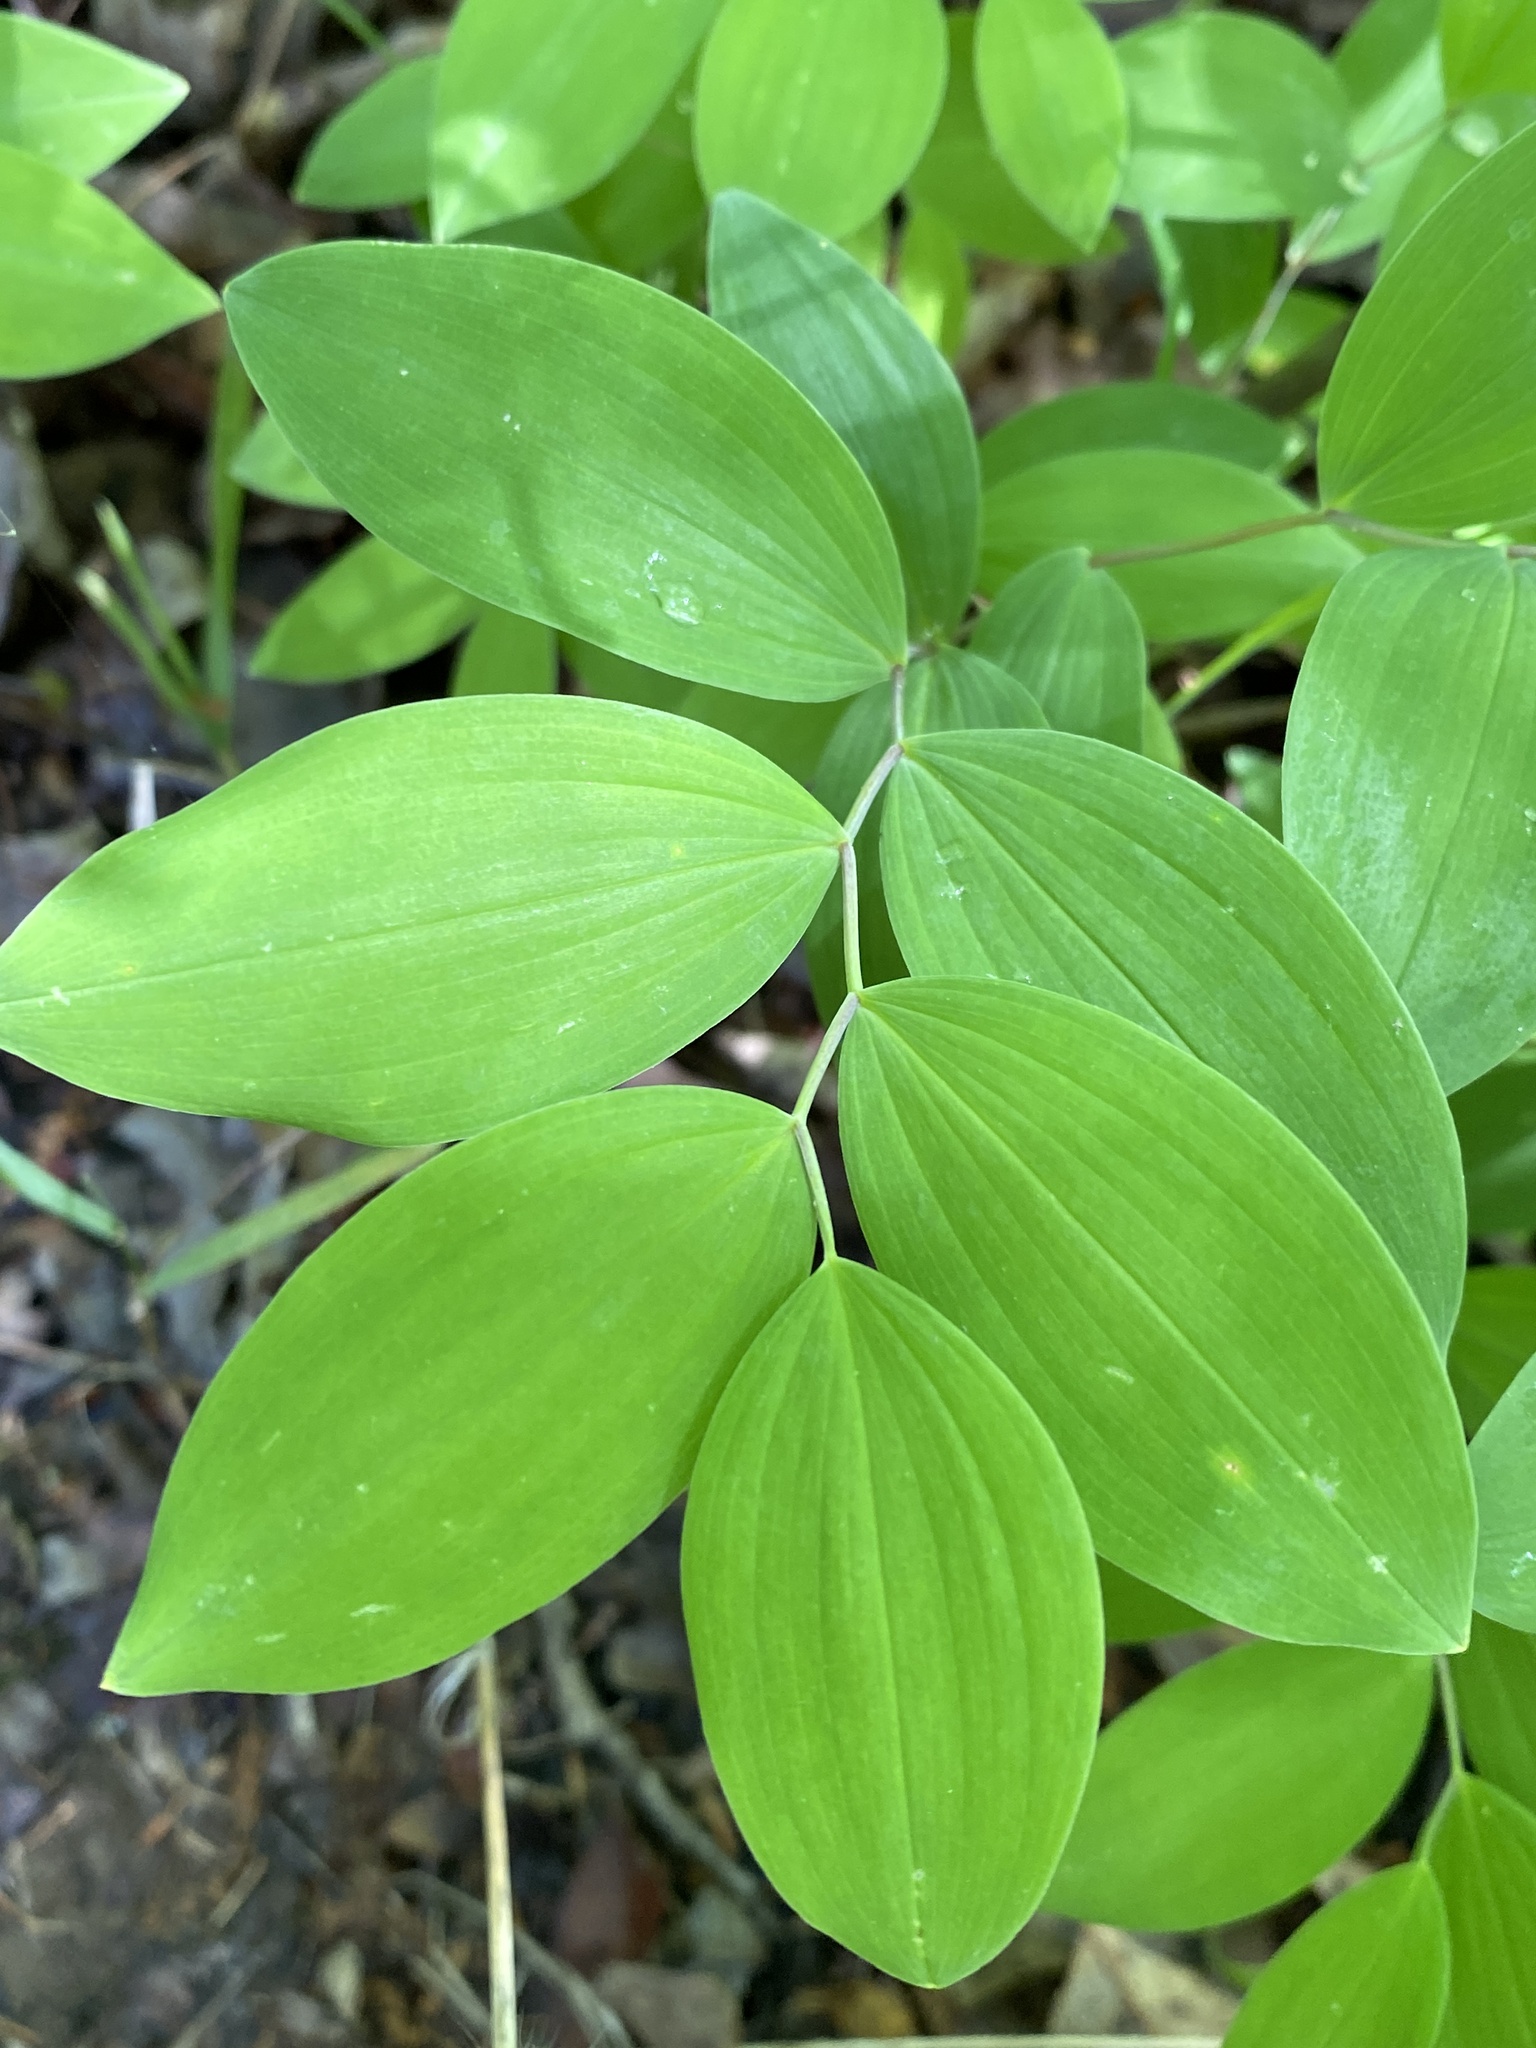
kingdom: Plantae
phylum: Tracheophyta
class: Liliopsida
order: Liliales
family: Colchicaceae
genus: Uvularia
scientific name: Uvularia sessilifolia
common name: Straw-lily
